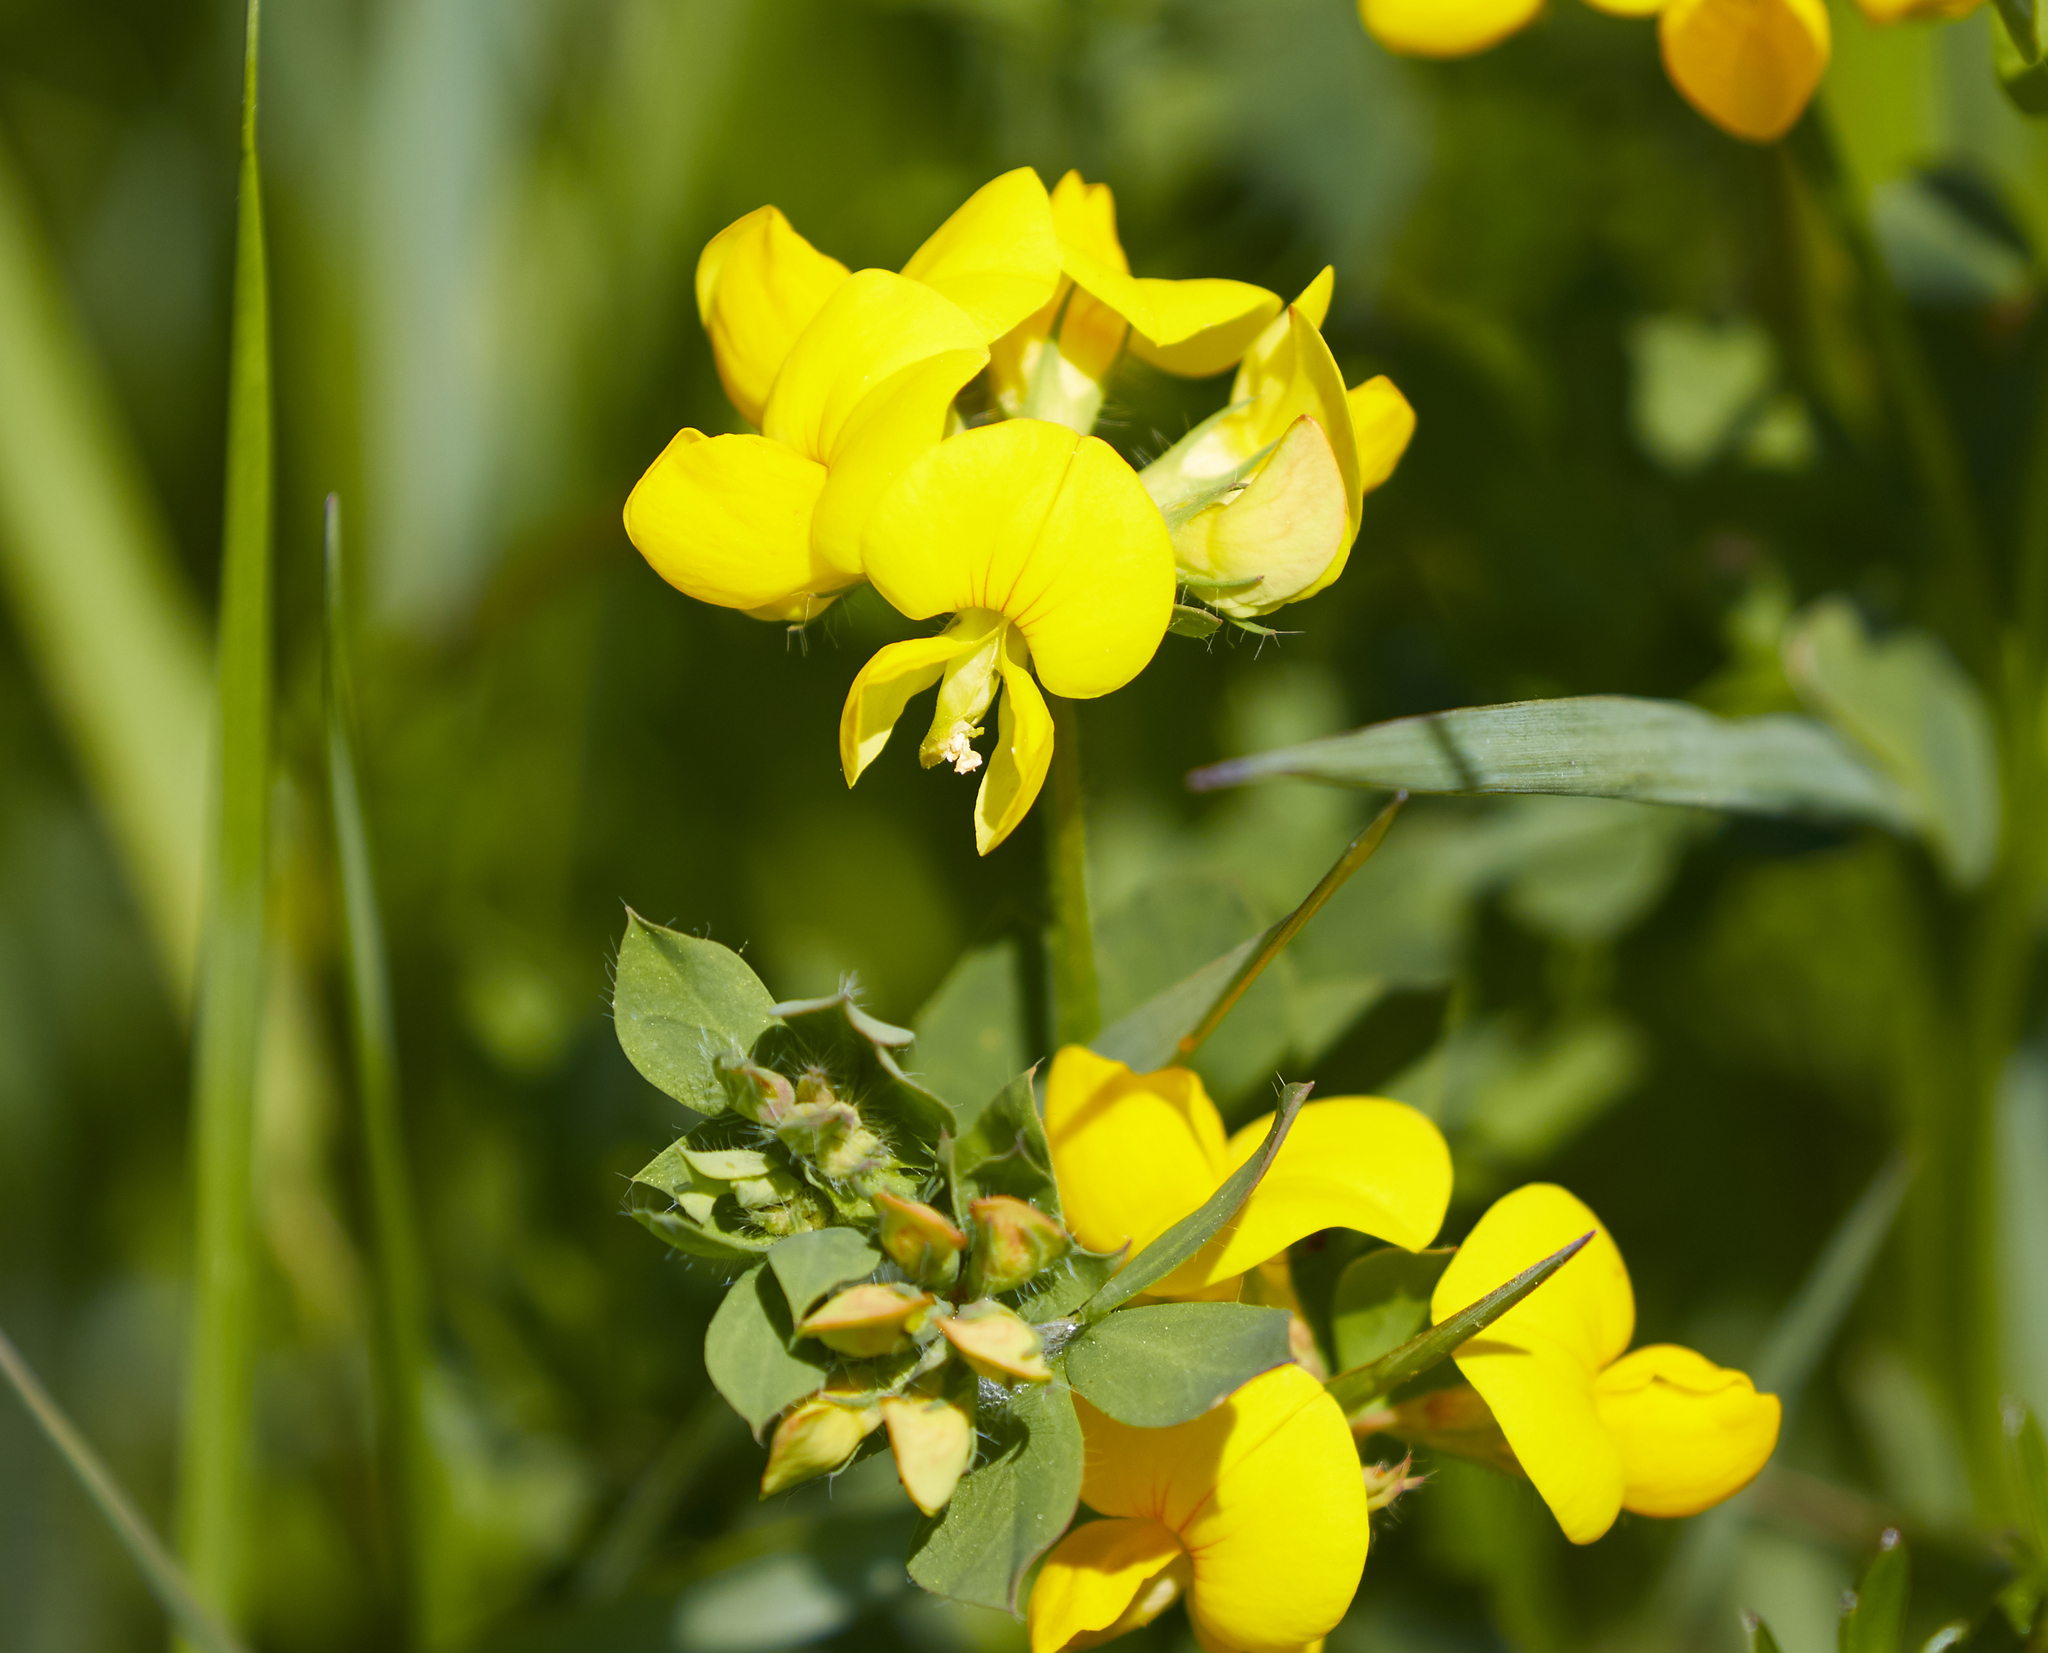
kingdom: Plantae
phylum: Tracheophyta
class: Magnoliopsida
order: Fabales
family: Fabaceae
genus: Lotus
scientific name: Lotus corniculatus
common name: Common bird's-foot-trefoil
